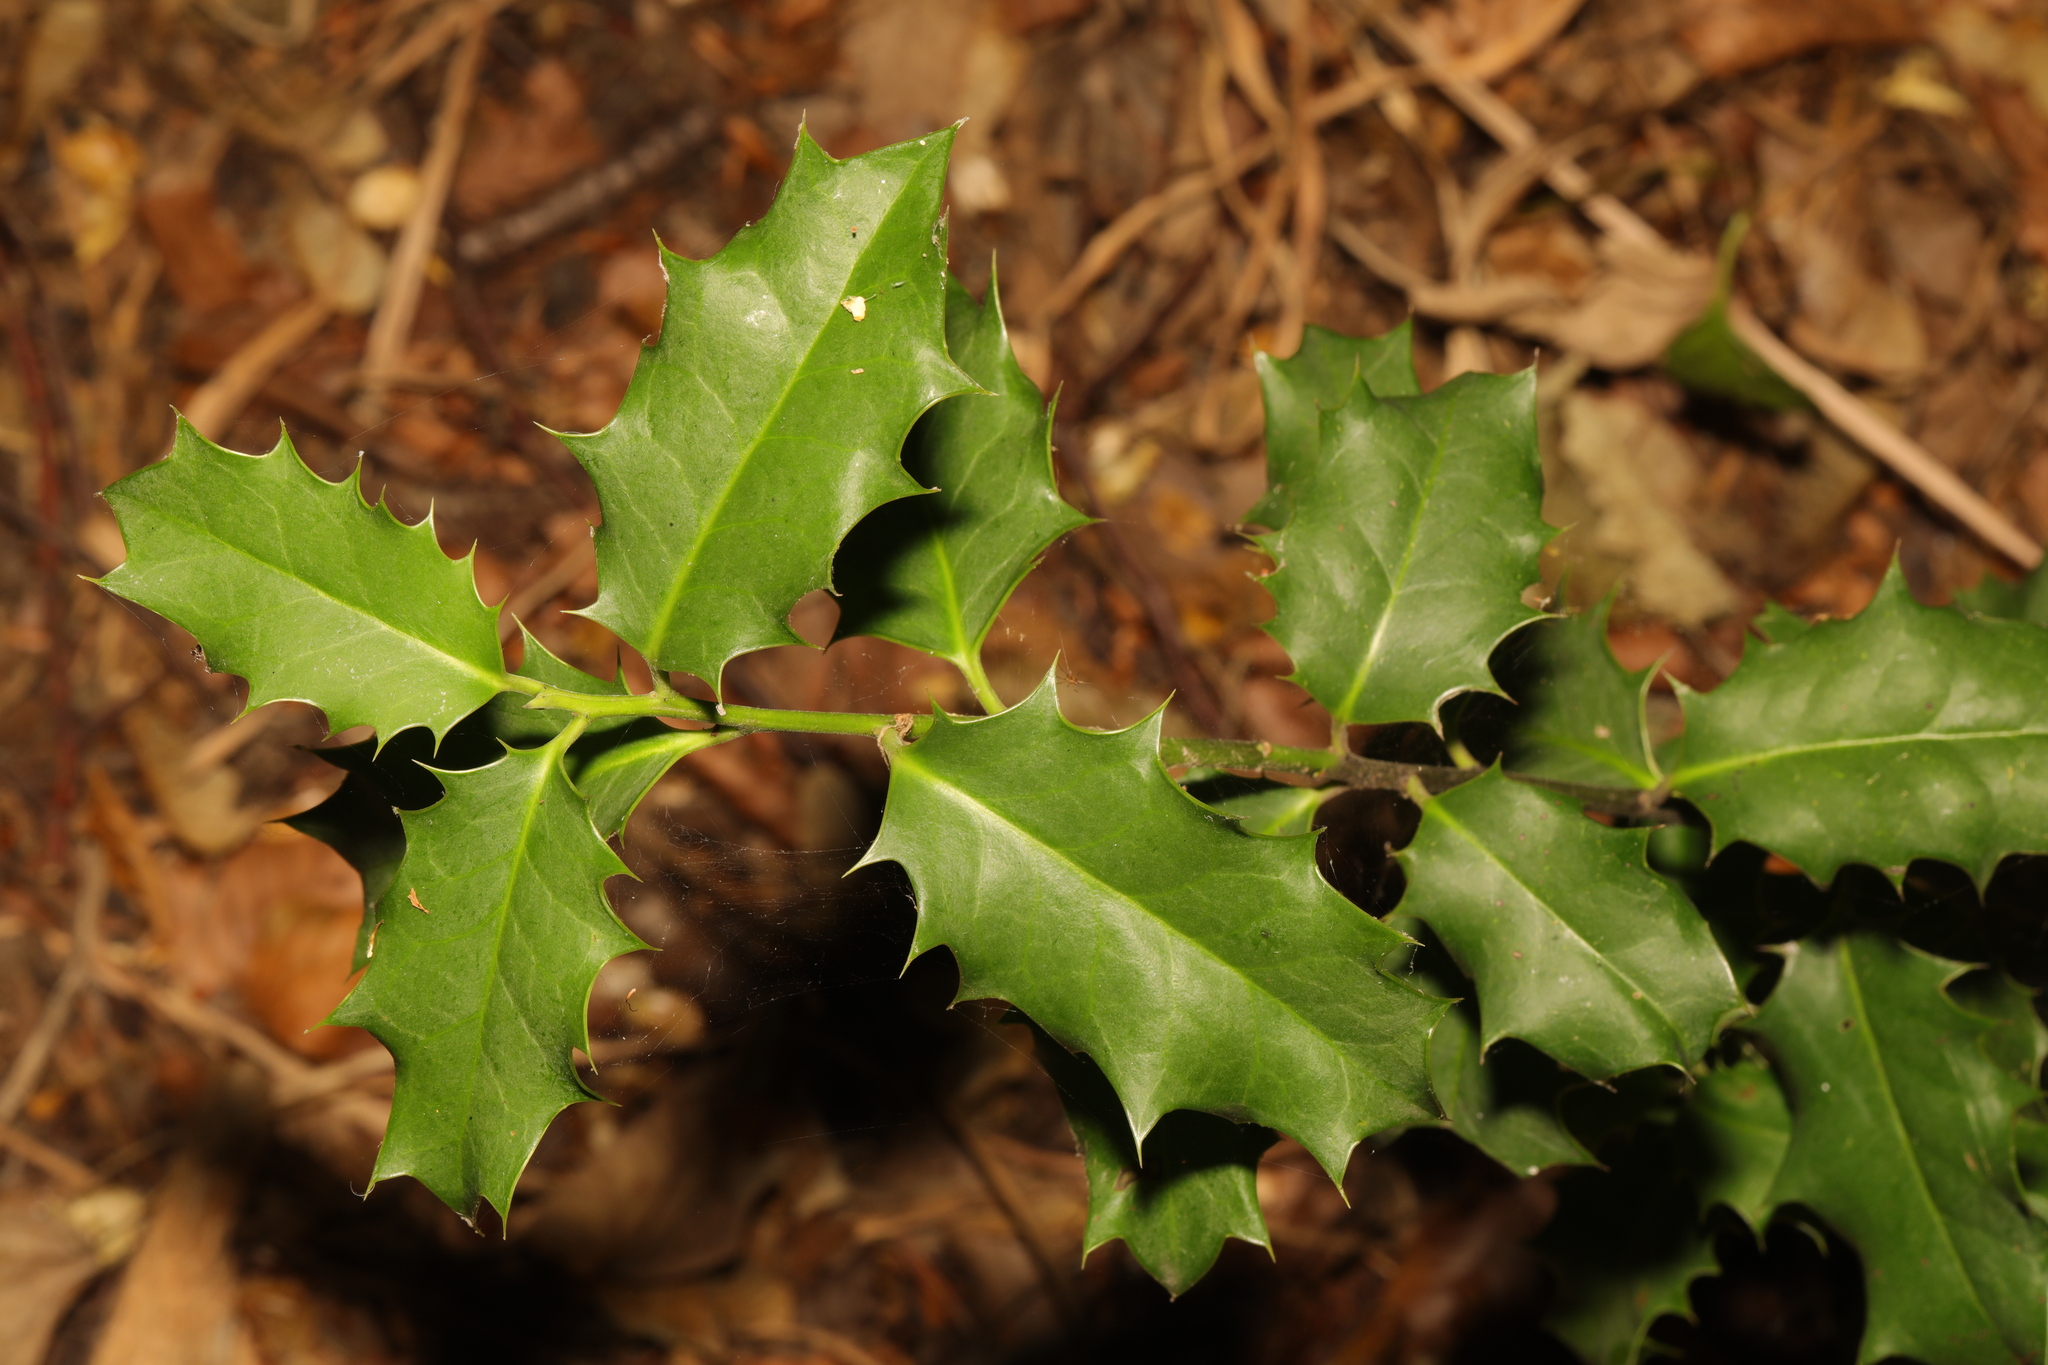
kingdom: Plantae
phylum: Tracheophyta
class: Magnoliopsida
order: Aquifoliales
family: Aquifoliaceae
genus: Ilex
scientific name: Ilex aquifolium
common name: English holly
